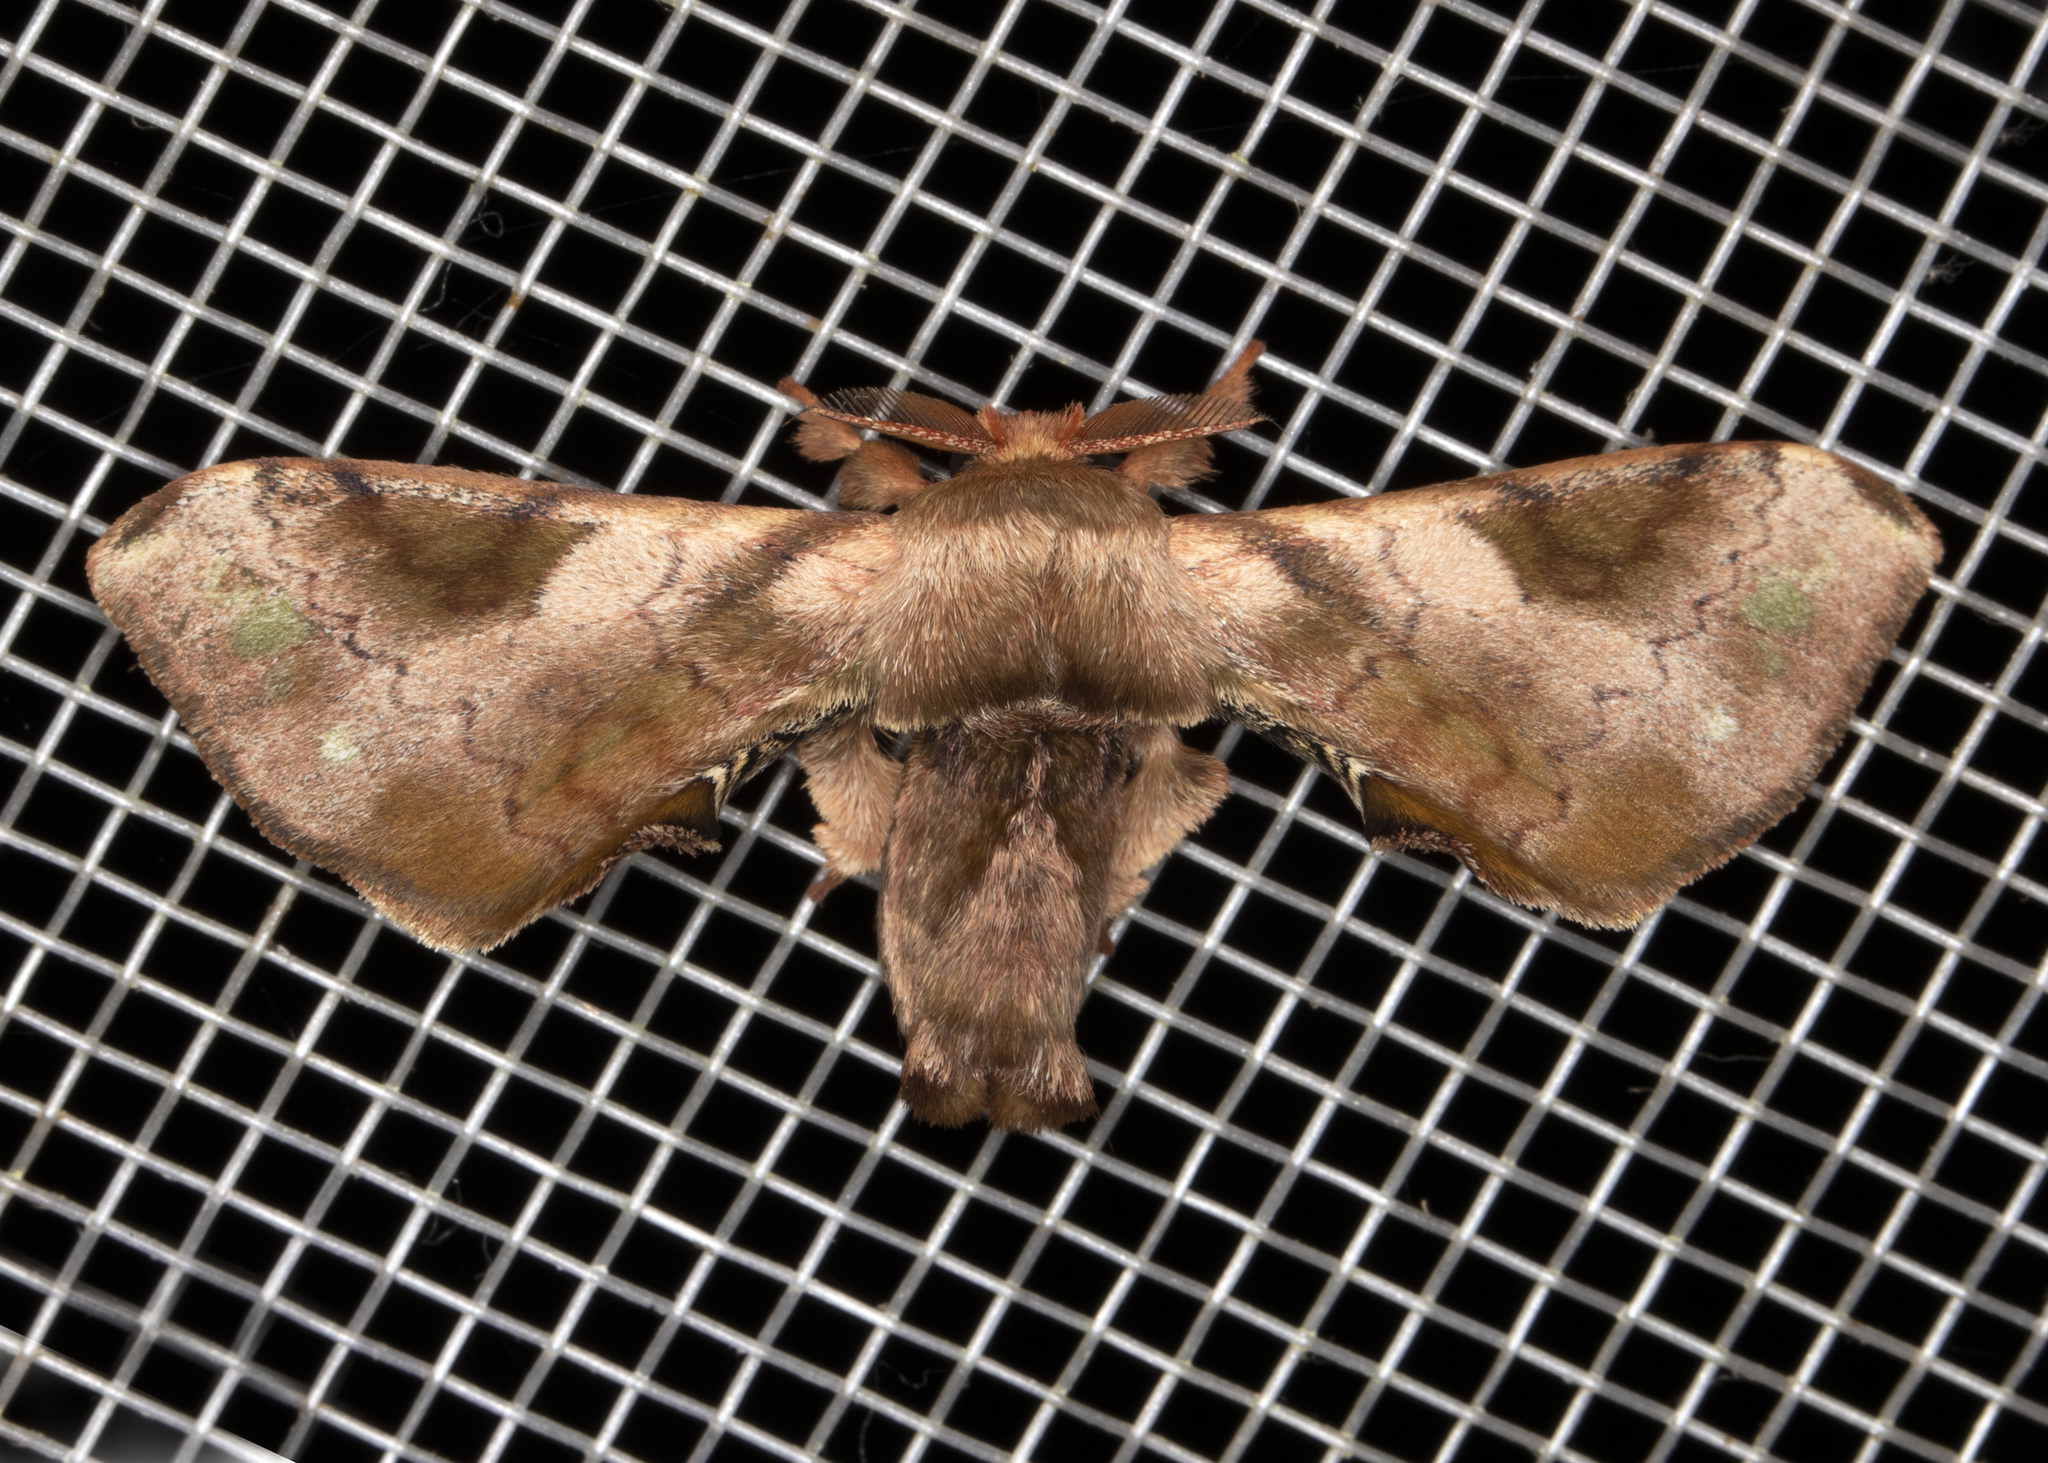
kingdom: Animalia
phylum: Arthropoda
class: Insecta
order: Lepidoptera
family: Bombycidae
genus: Epia
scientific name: Epia picta
